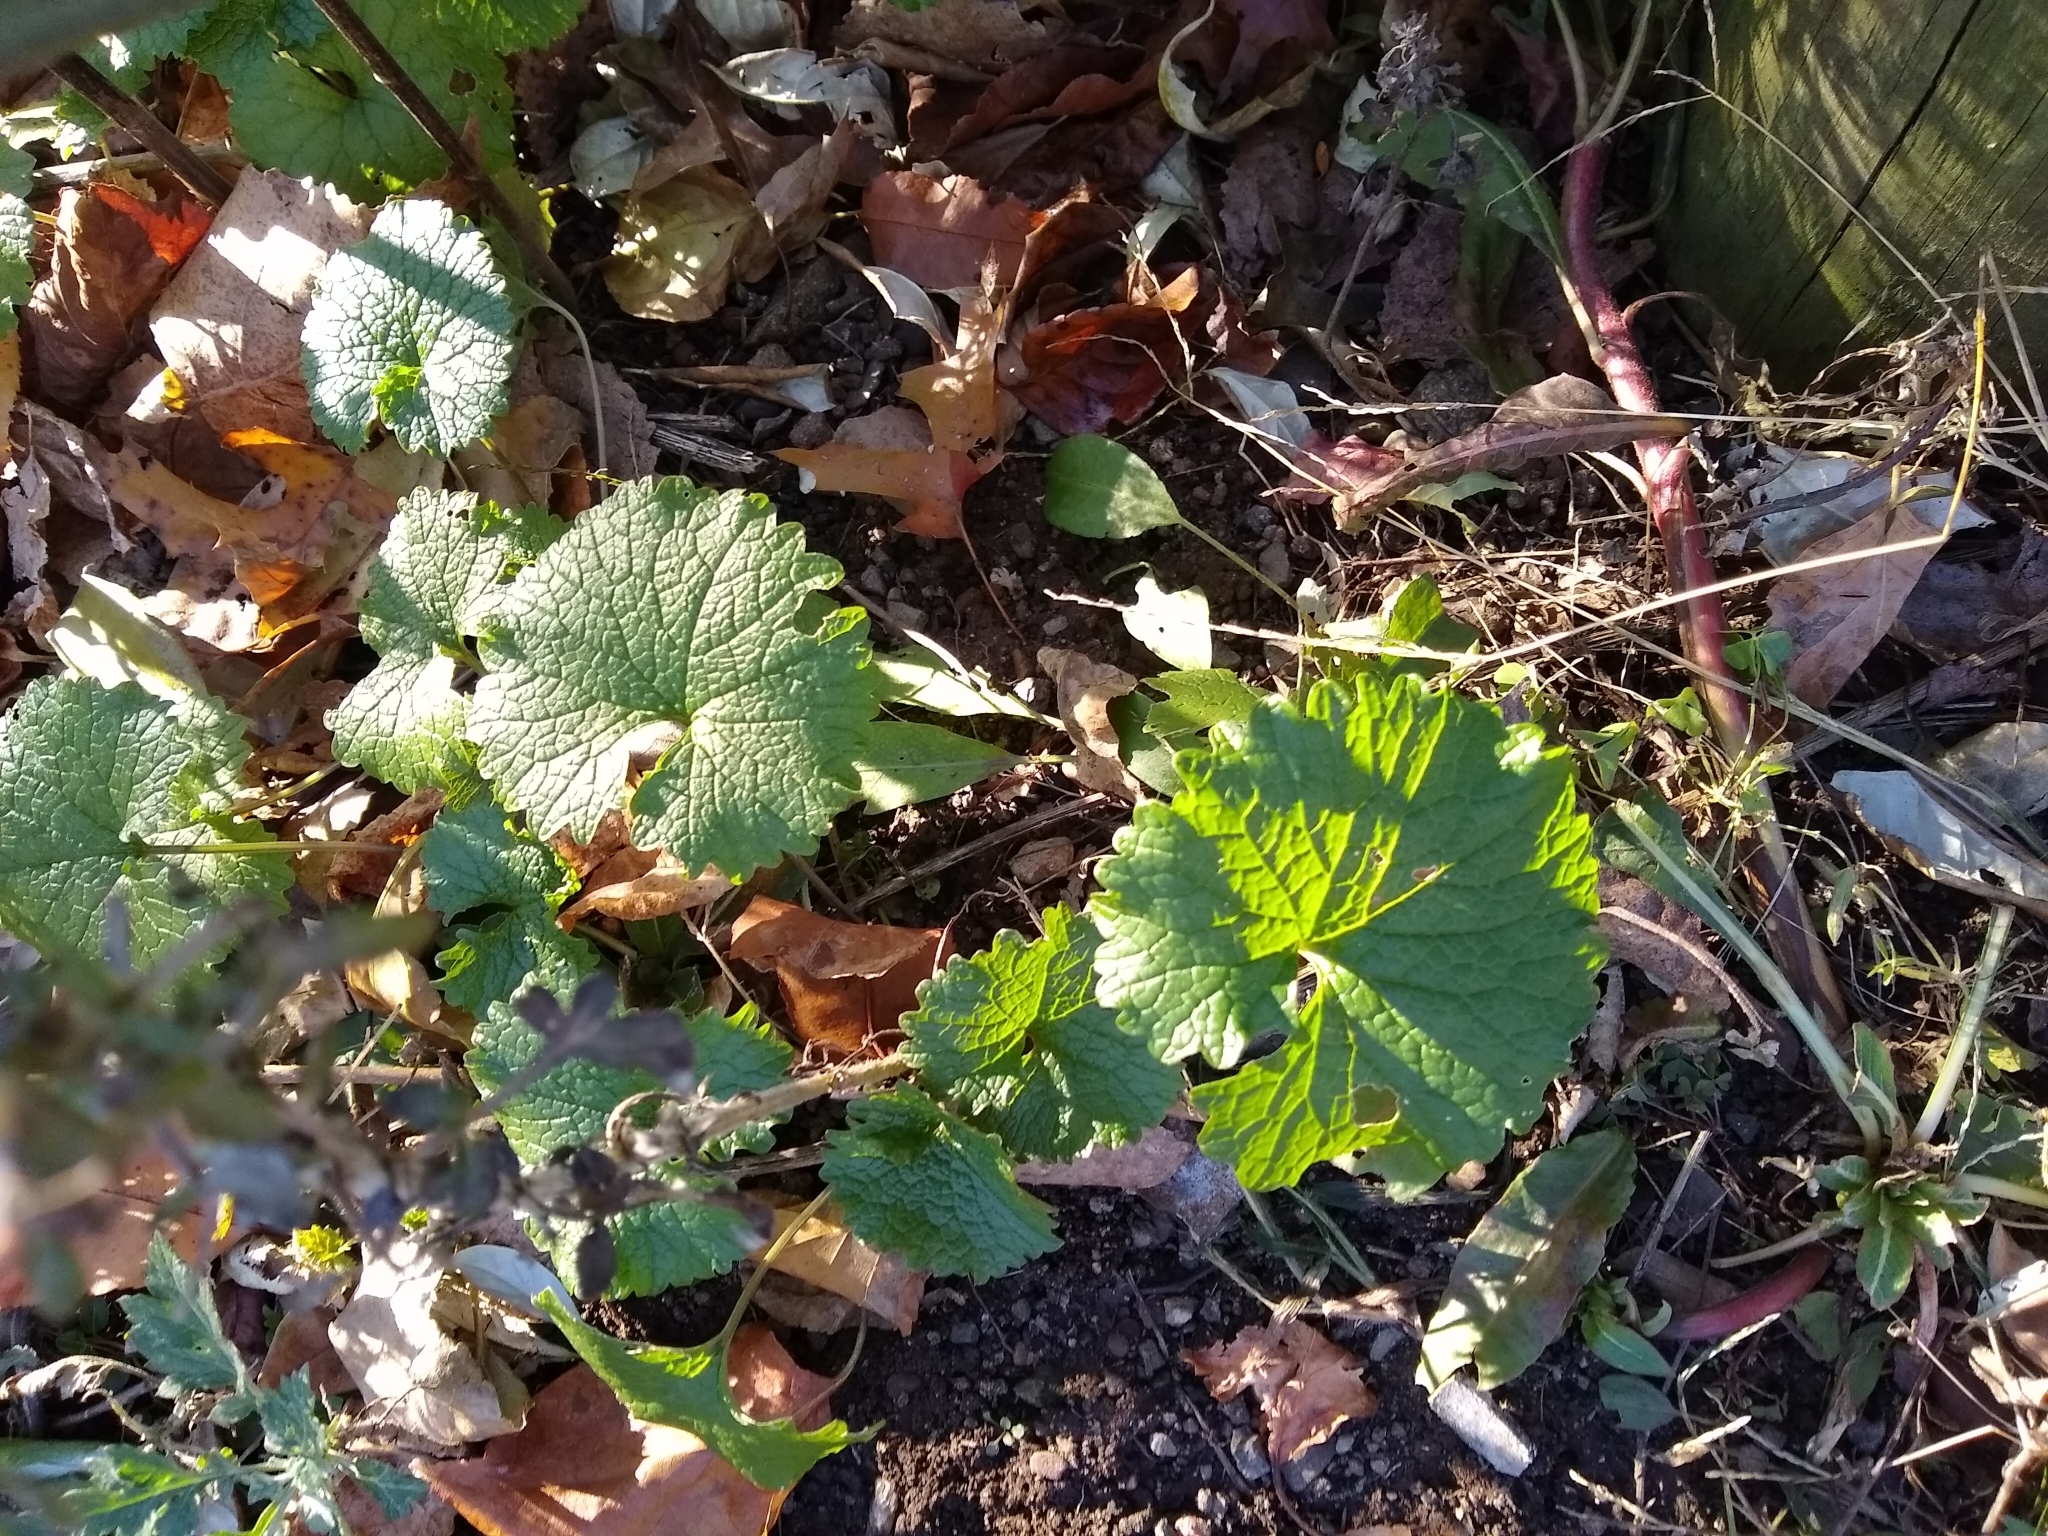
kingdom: Plantae
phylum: Tracheophyta
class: Magnoliopsida
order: Brassicales
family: Brassicaceae
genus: Alliaria
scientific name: Alliaria petiolata
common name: Garlic mustard
